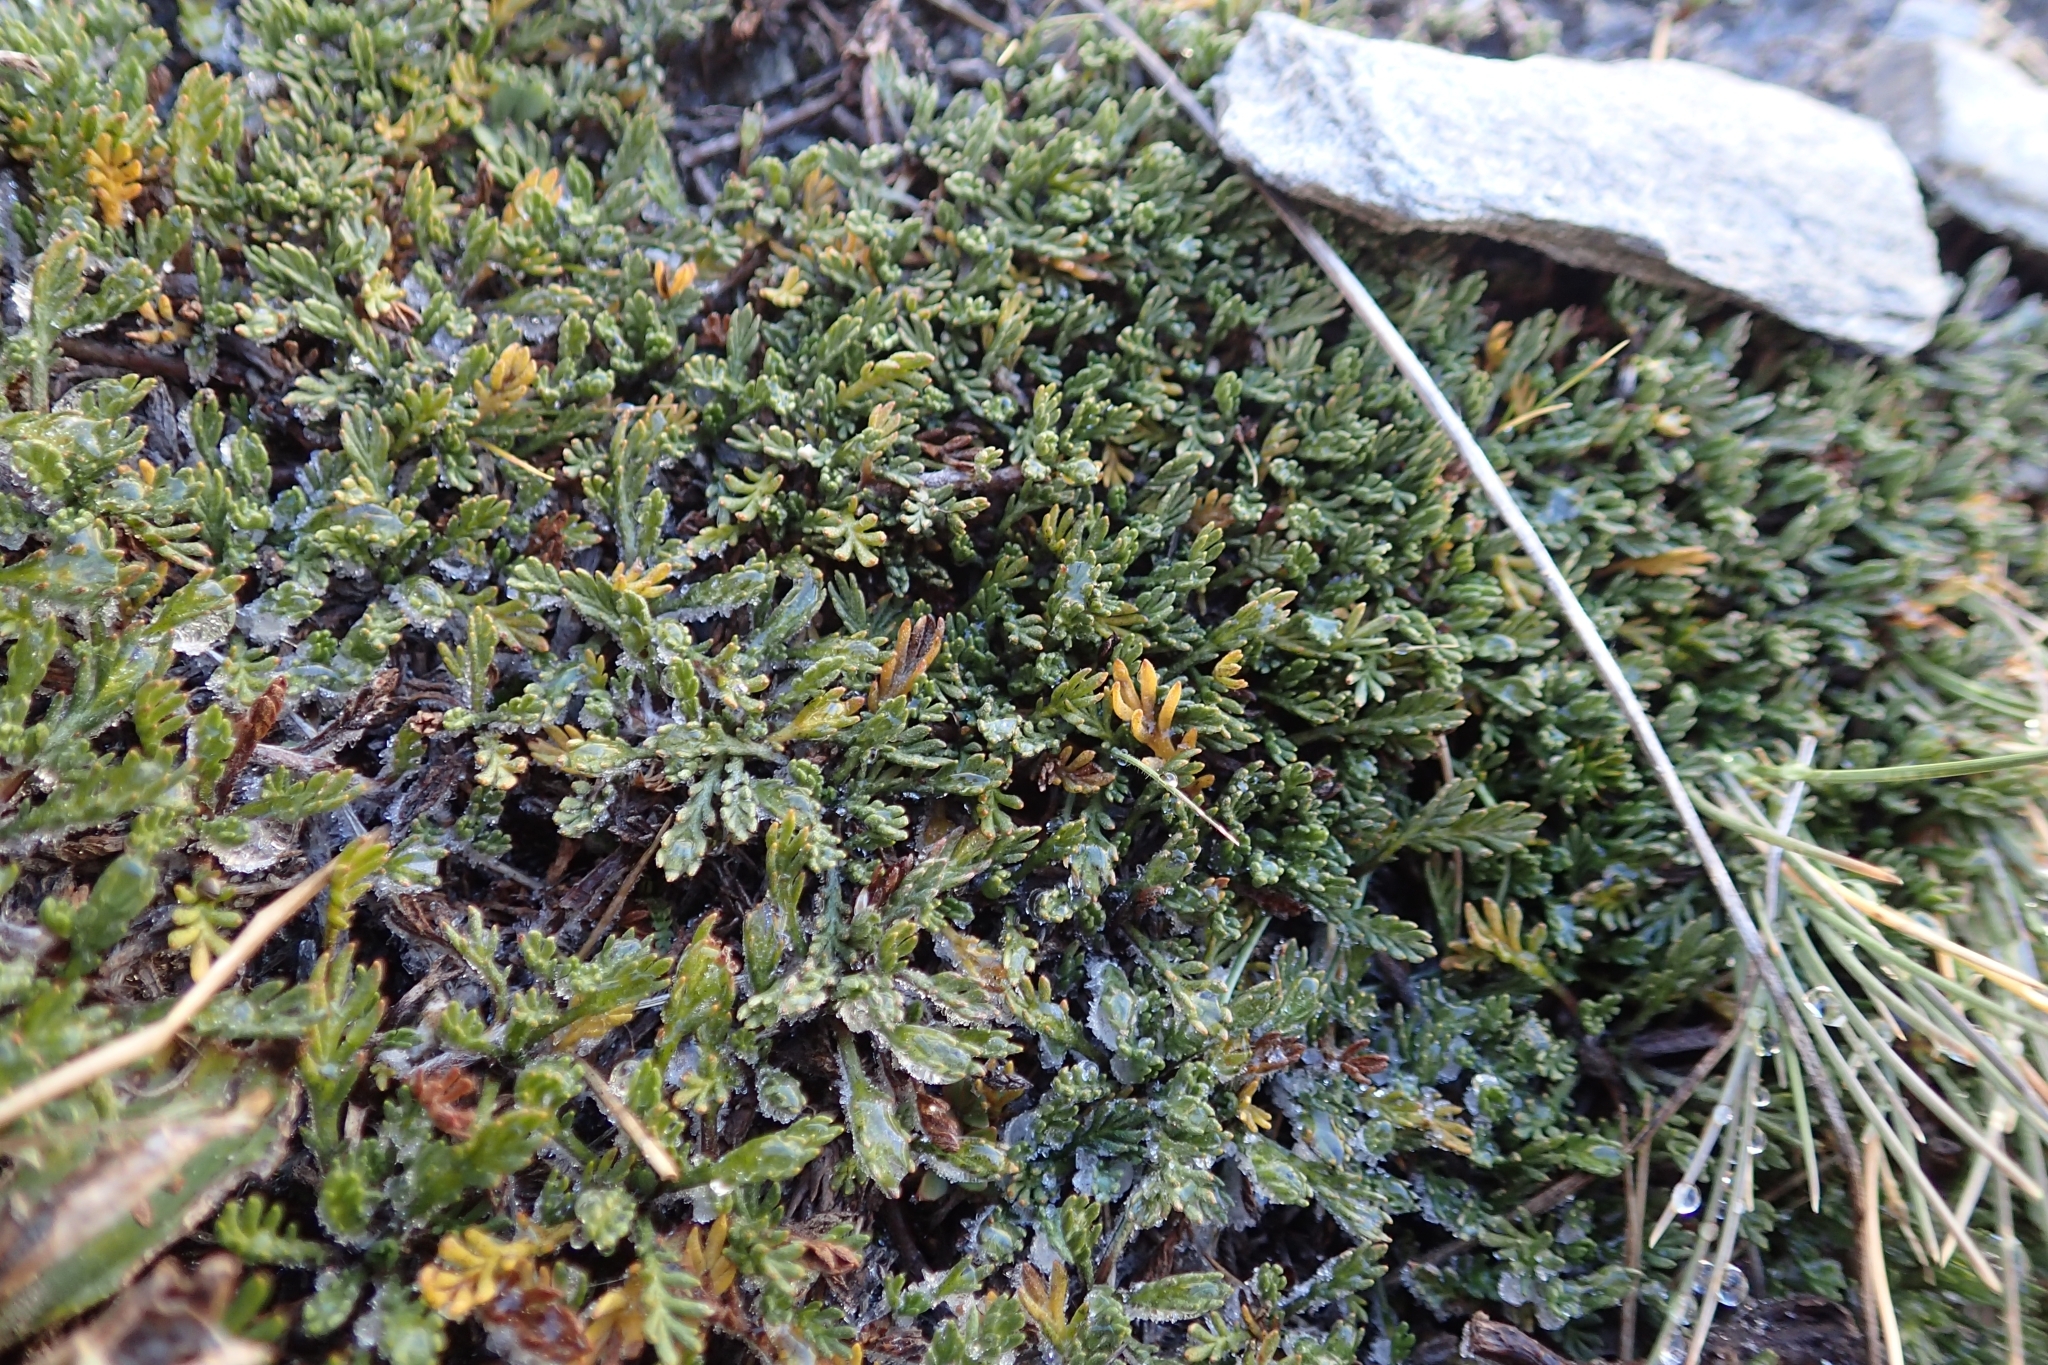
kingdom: Plantae
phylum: Tracheophyta
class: Magnoliopsida
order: Asterales
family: Asteraceae
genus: Leptinella
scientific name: Leptinella pectinata
